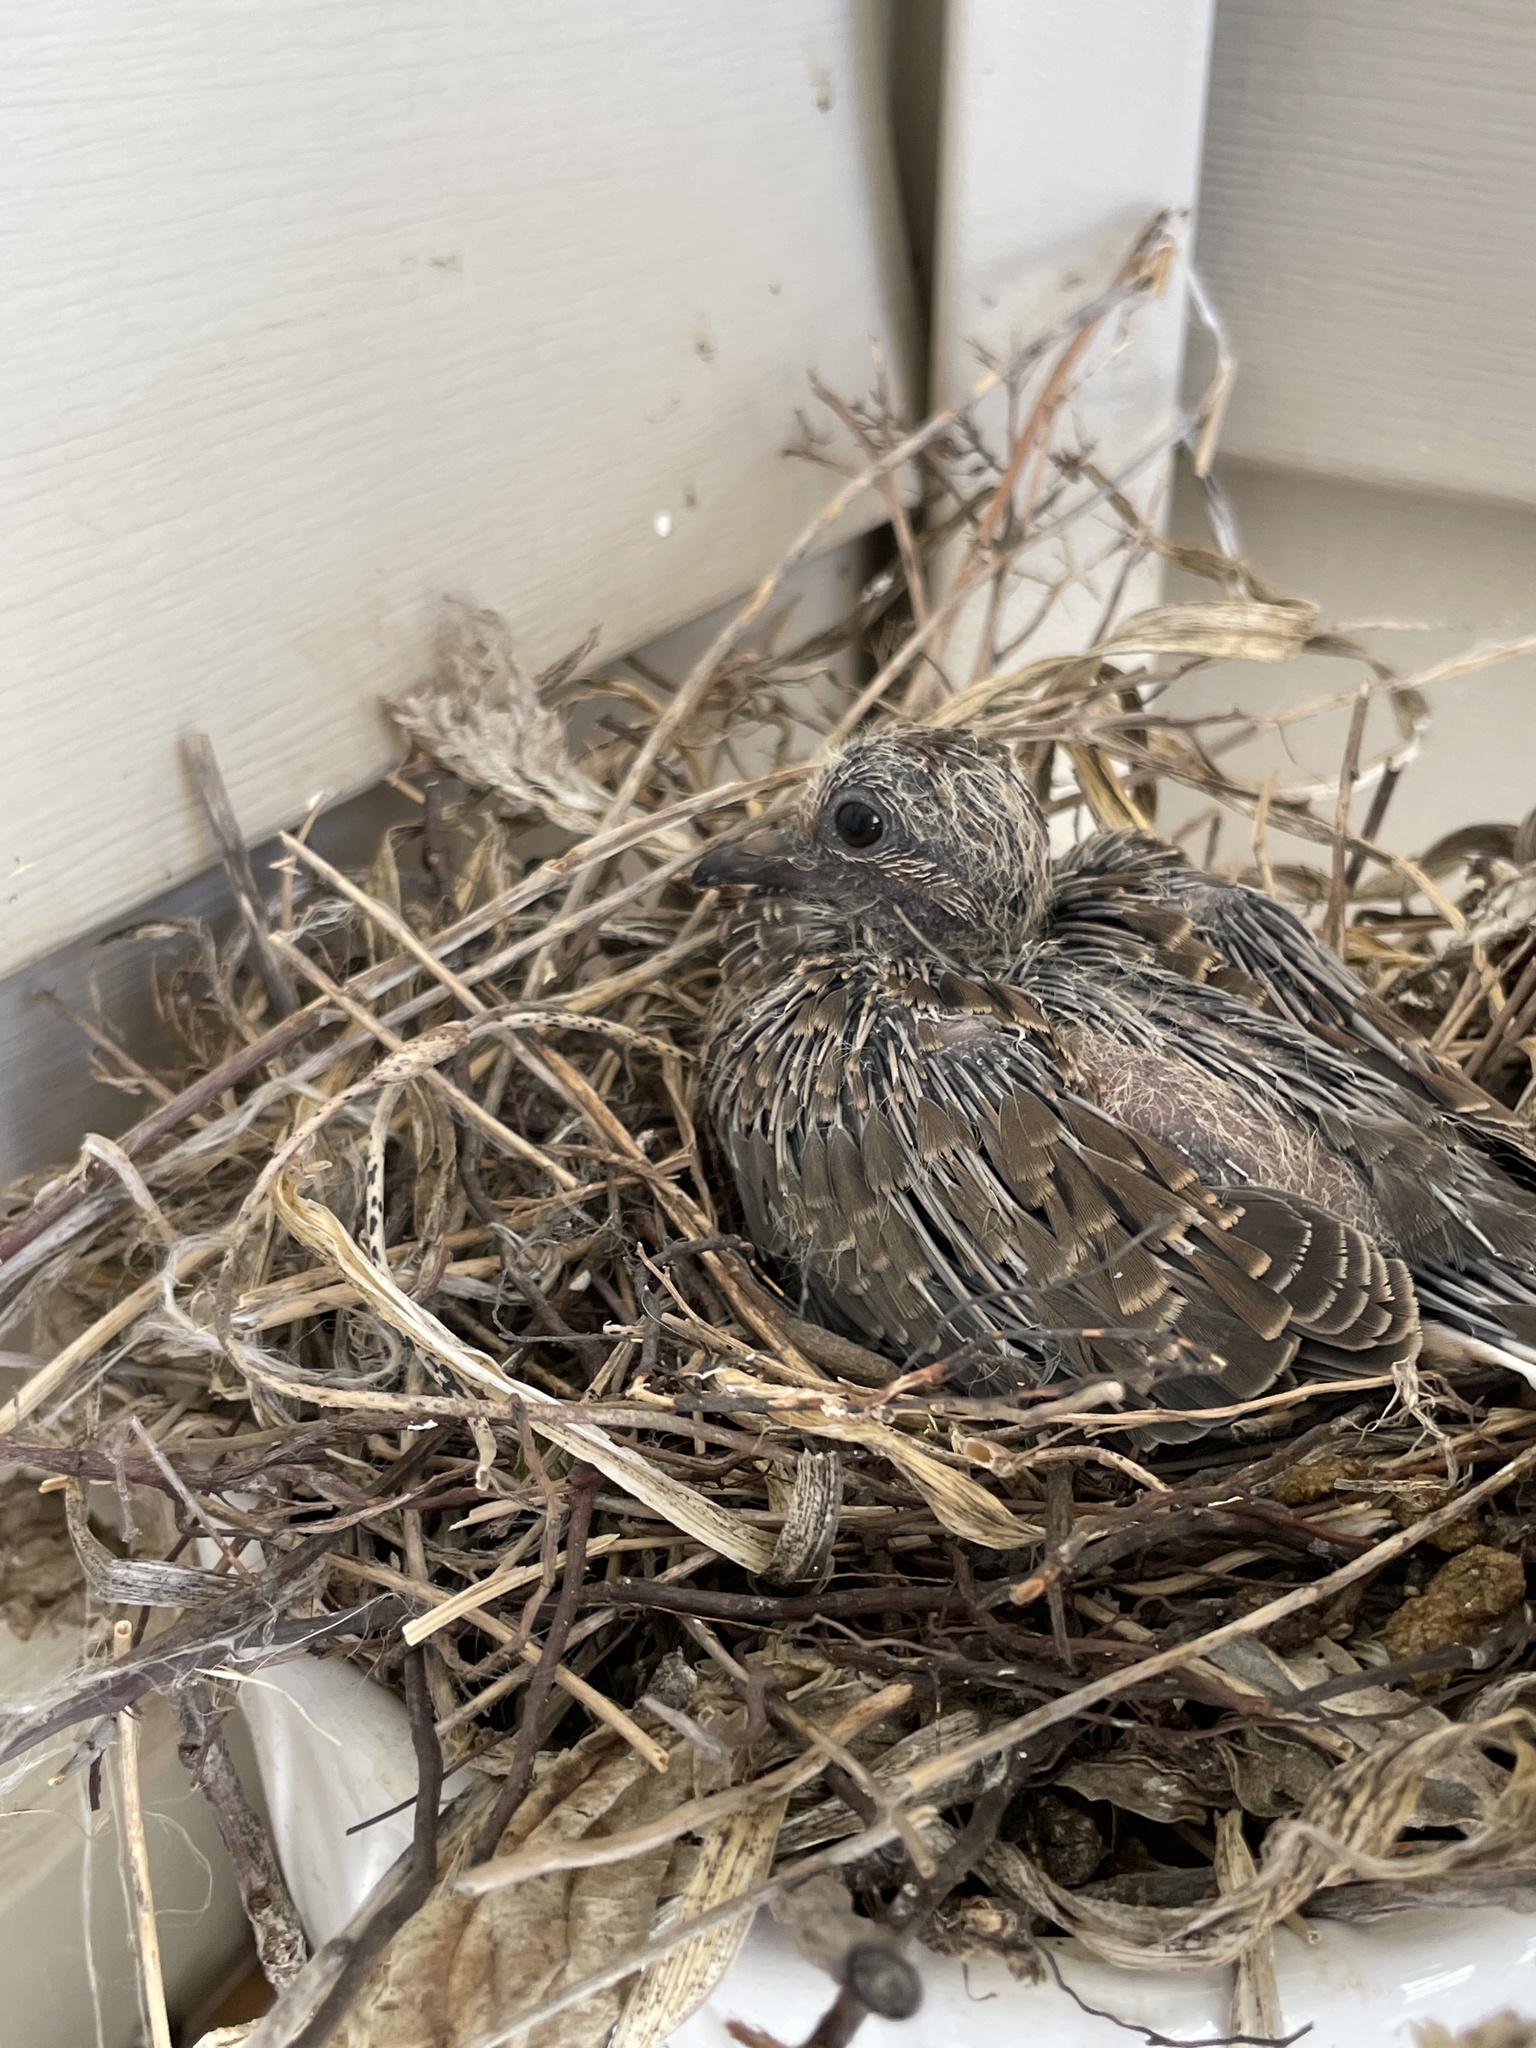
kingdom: Animalia
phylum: Chordata
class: Aves
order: Columbiformes
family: Columbidae
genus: Zenaida
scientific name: Zenaida macroura
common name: Mourning dove
